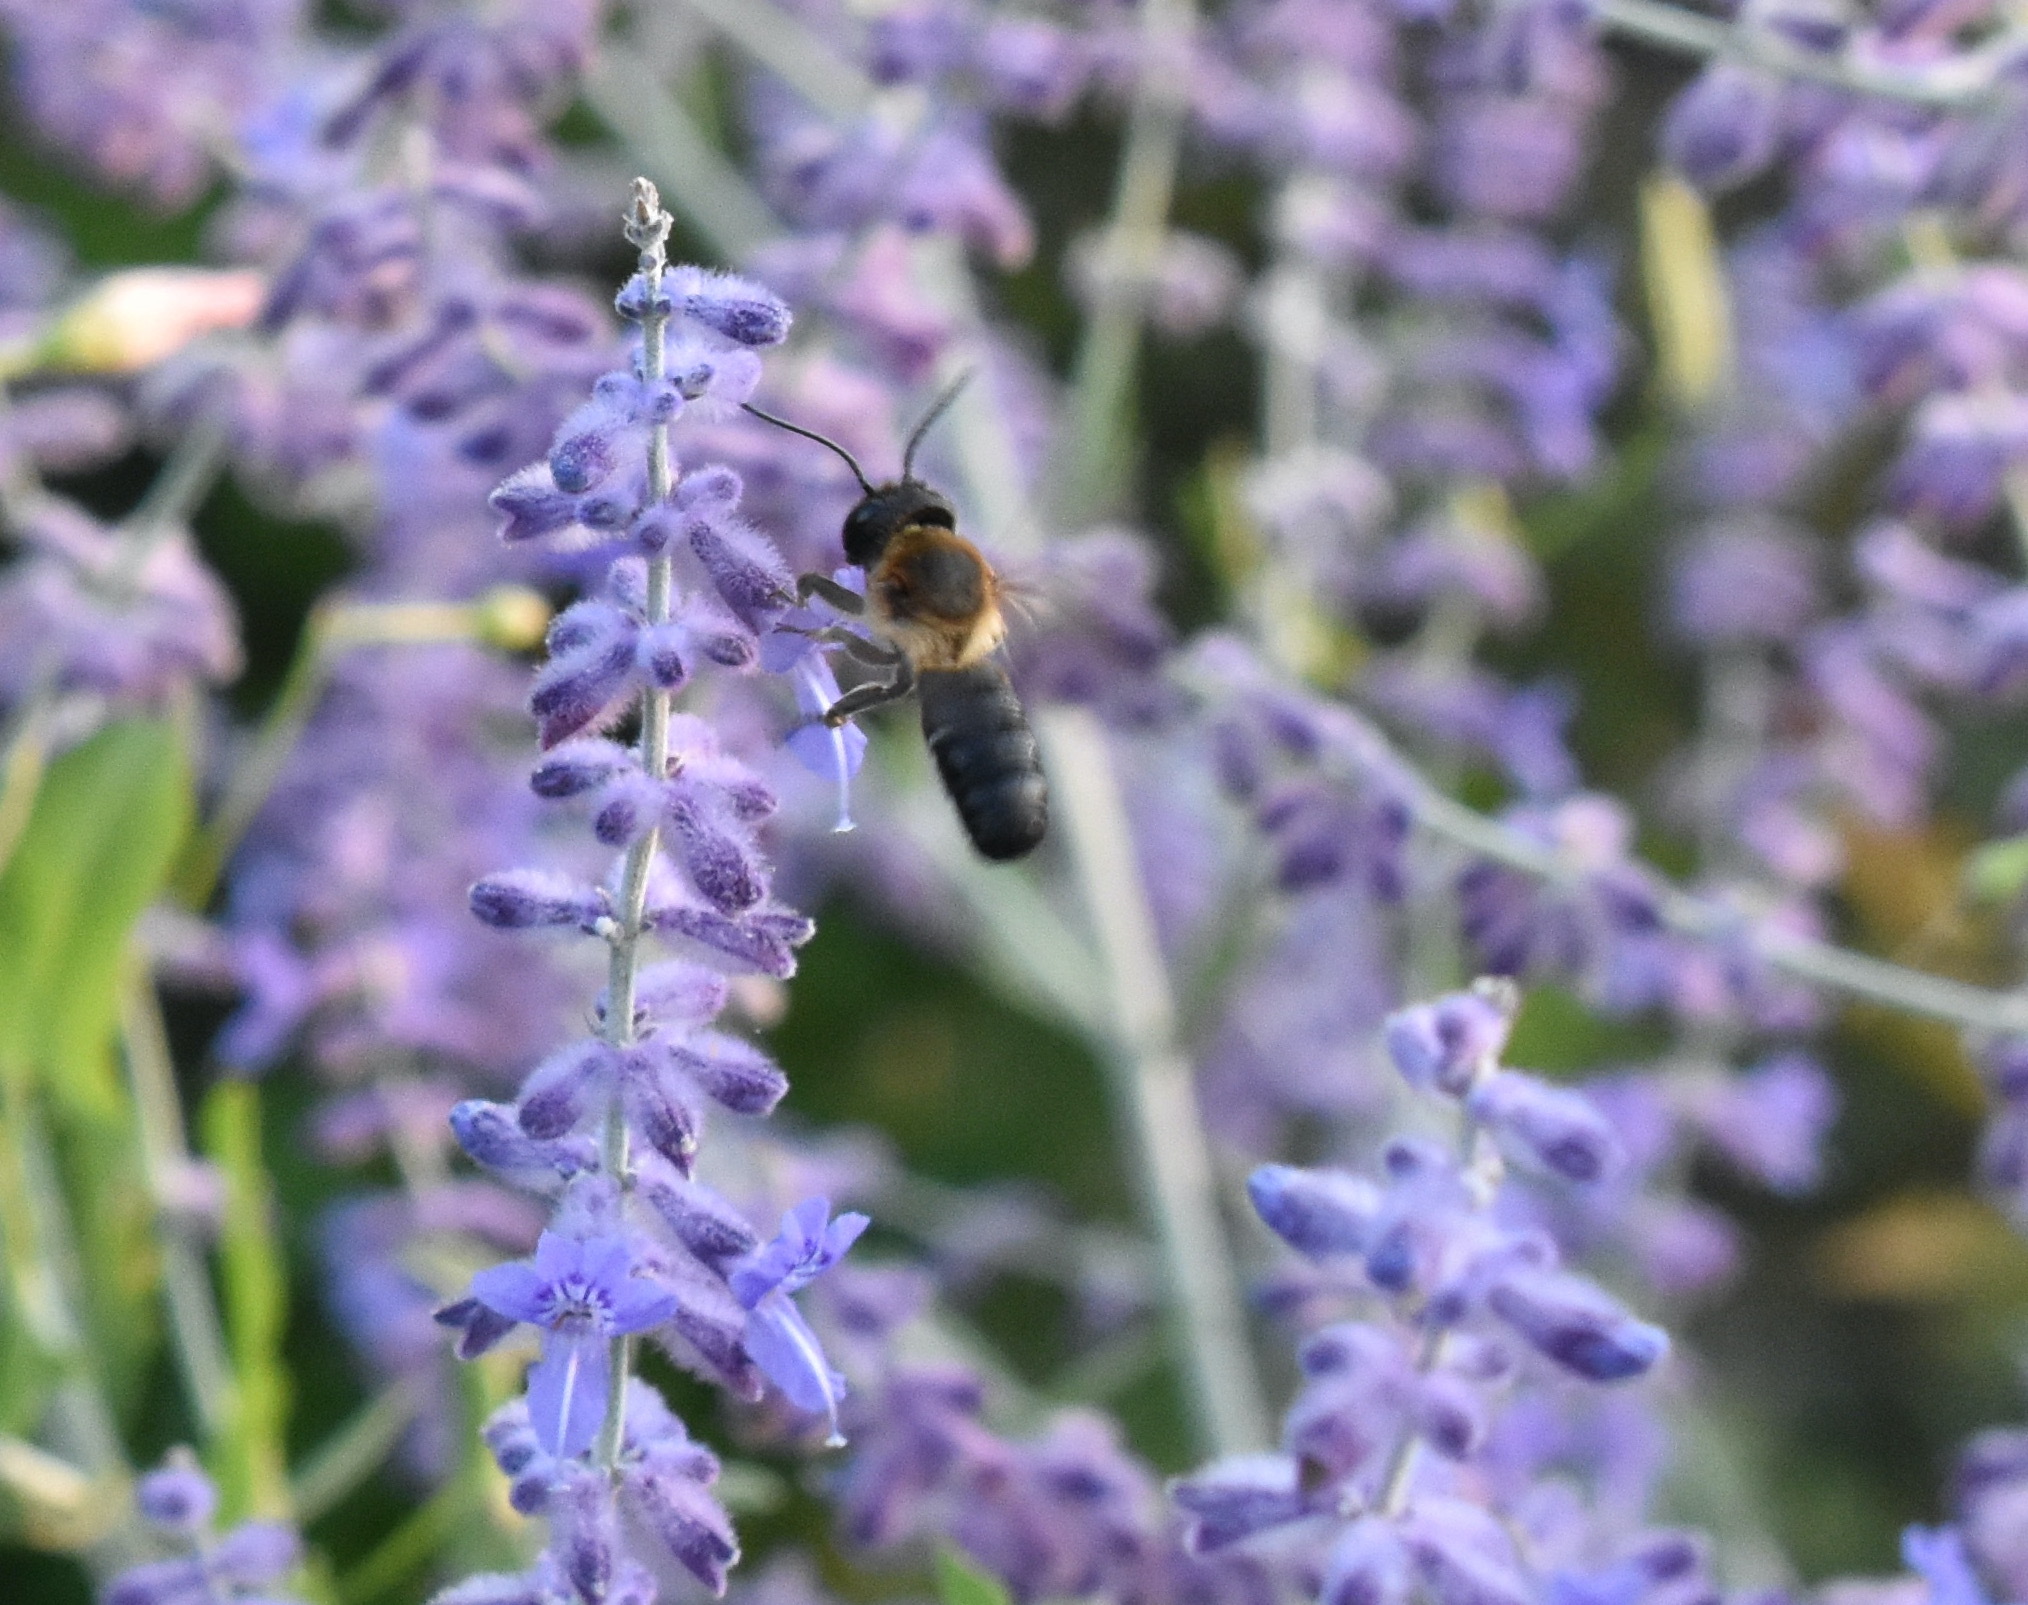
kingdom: Animalia
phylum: Arthropoda
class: Insecta
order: Hymenoptera
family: Megachilidae
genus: Megachile
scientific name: Megachile sculpturalis
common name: Sculptured resin bee
